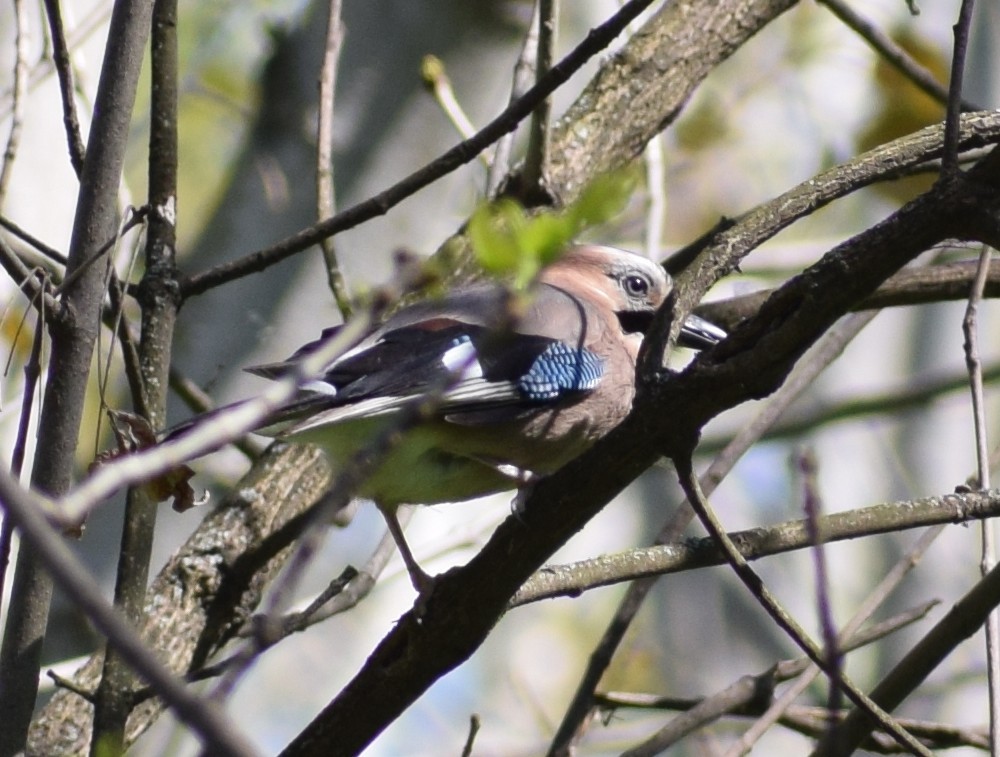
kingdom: Animalia
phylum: Chordata
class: Aves
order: Passeriformes
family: Corvidae
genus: Garrulus
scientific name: Garrulus glandarius
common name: Eurasian jay
